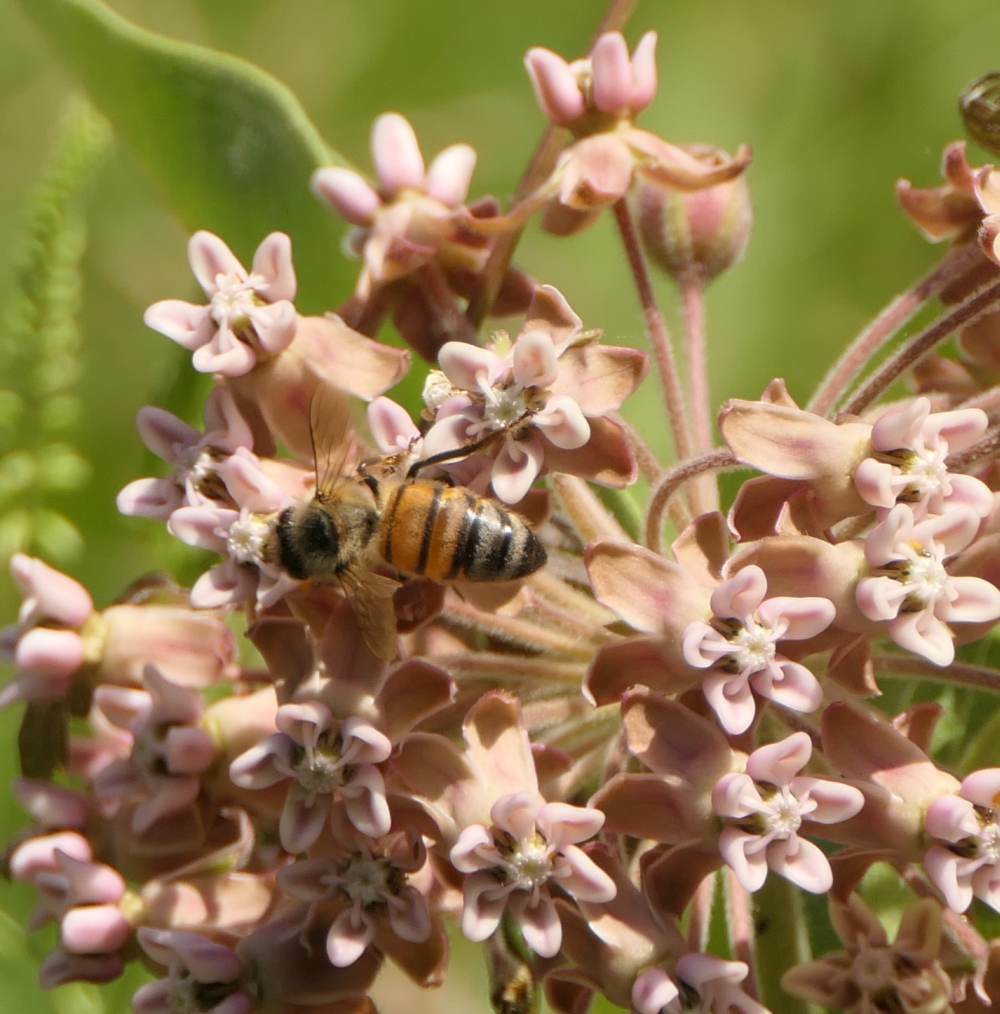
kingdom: Animalia
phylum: Arthropoda
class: Insecta
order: Hymenoptera
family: Apidae
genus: Apis
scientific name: Apis mellifera
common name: Honey bee
